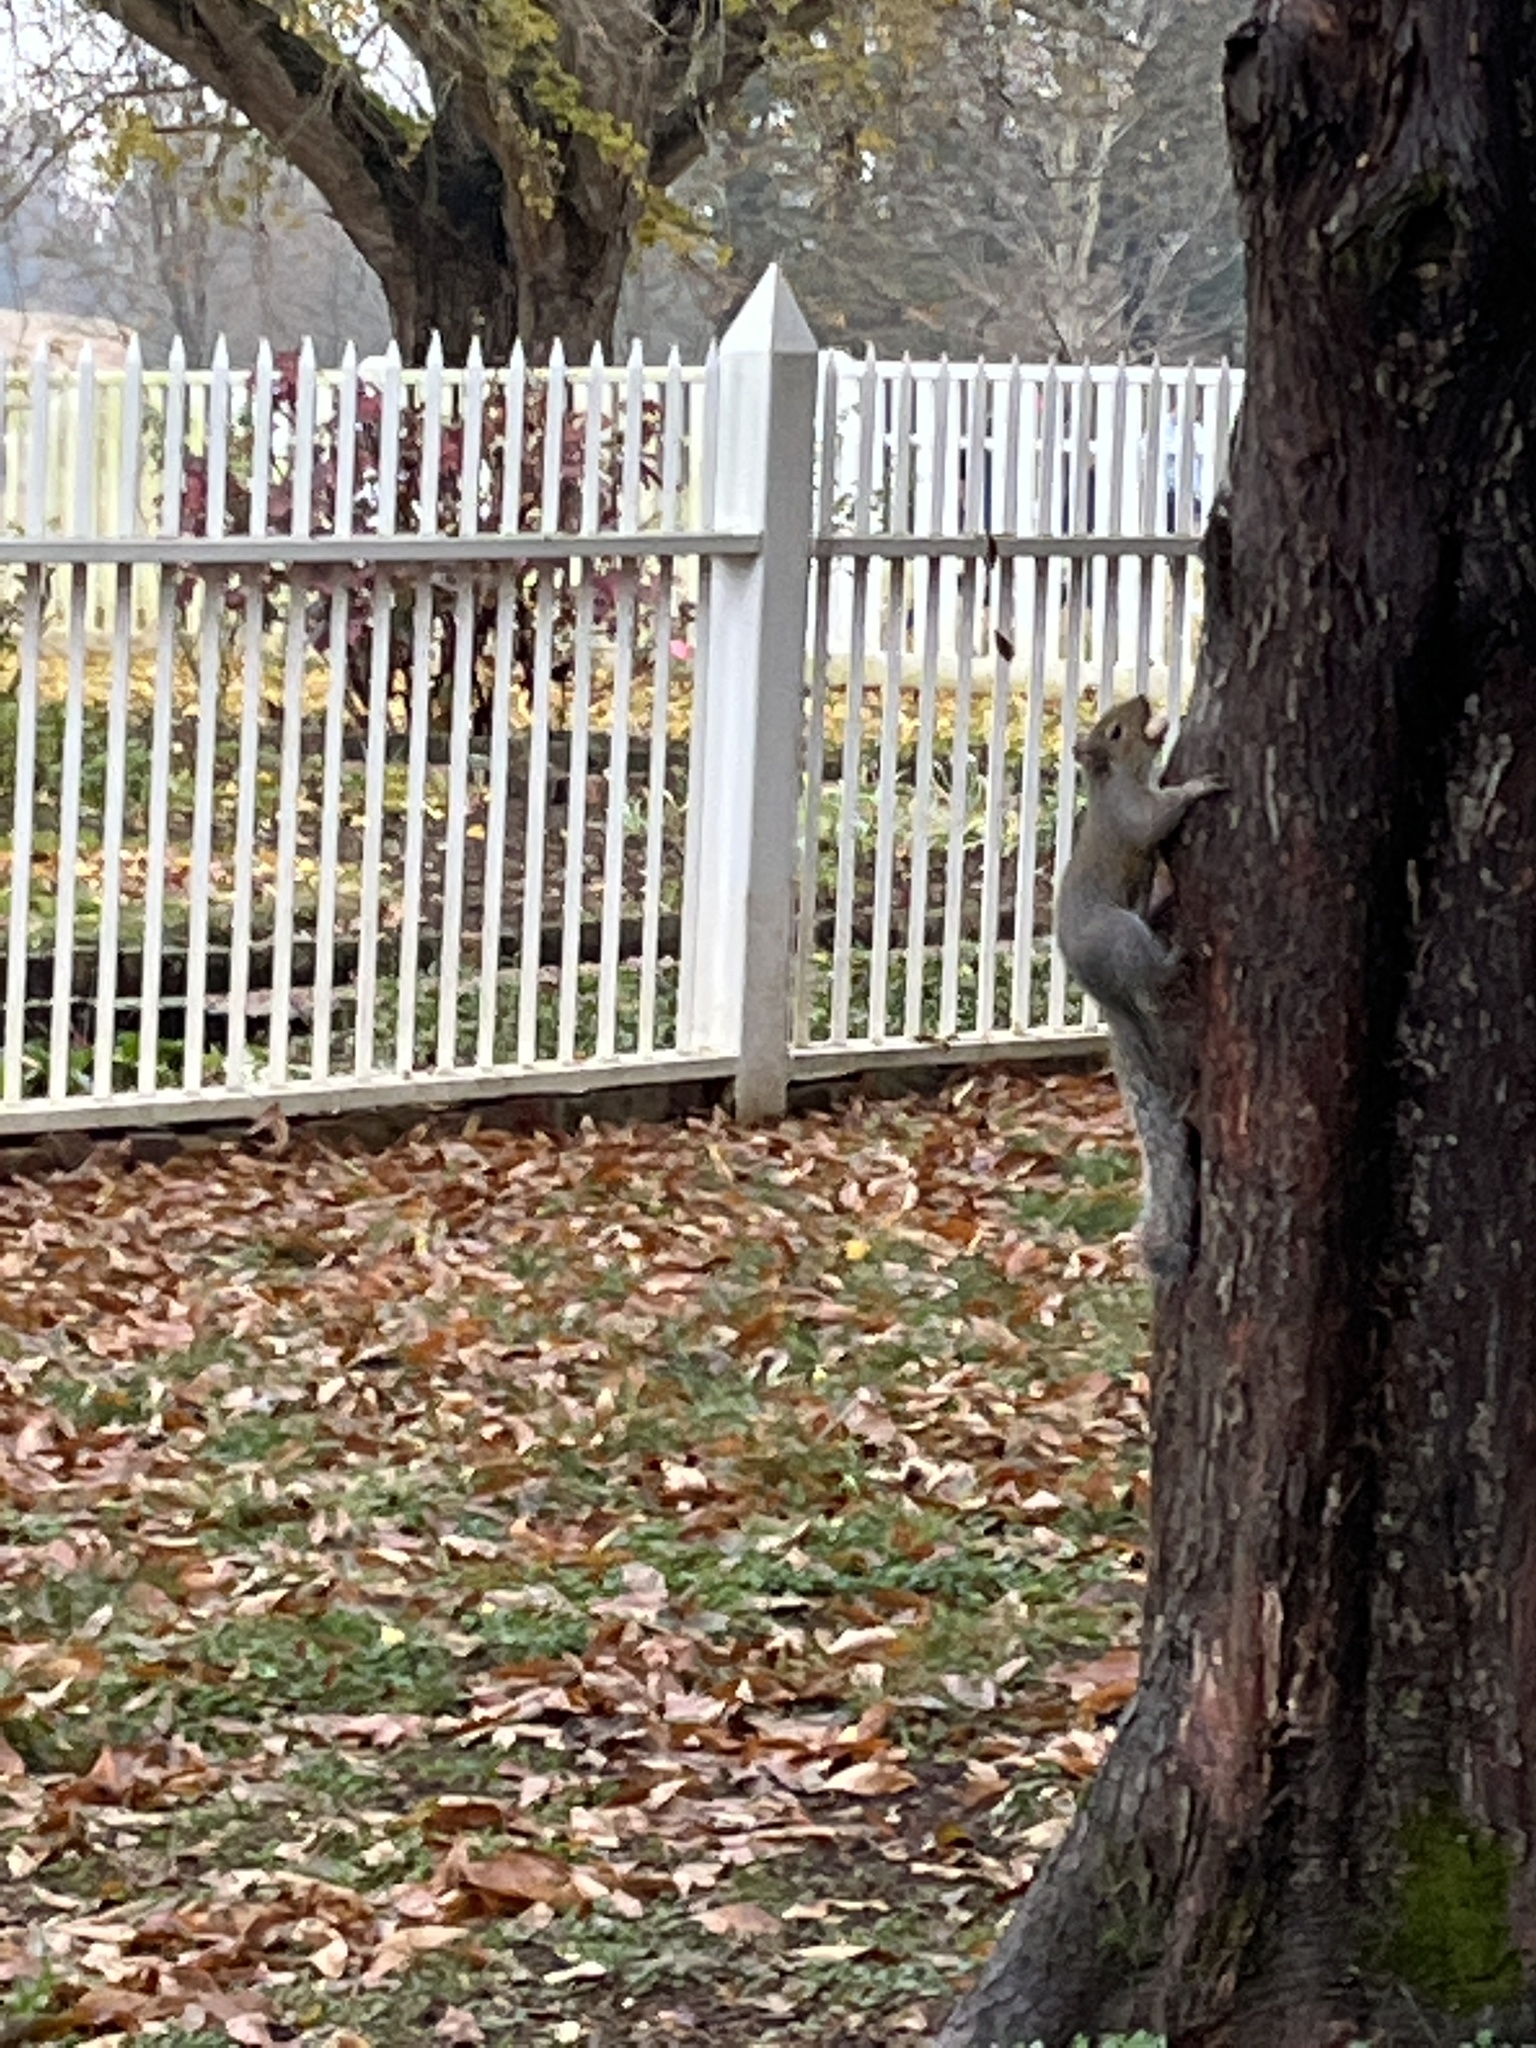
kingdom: Animalia
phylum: Chordata
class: Mammalia
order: Rodentia
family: Sciuridae
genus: Sciurus
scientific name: Sciurus carolinensis
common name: Eastern gray squirrel
